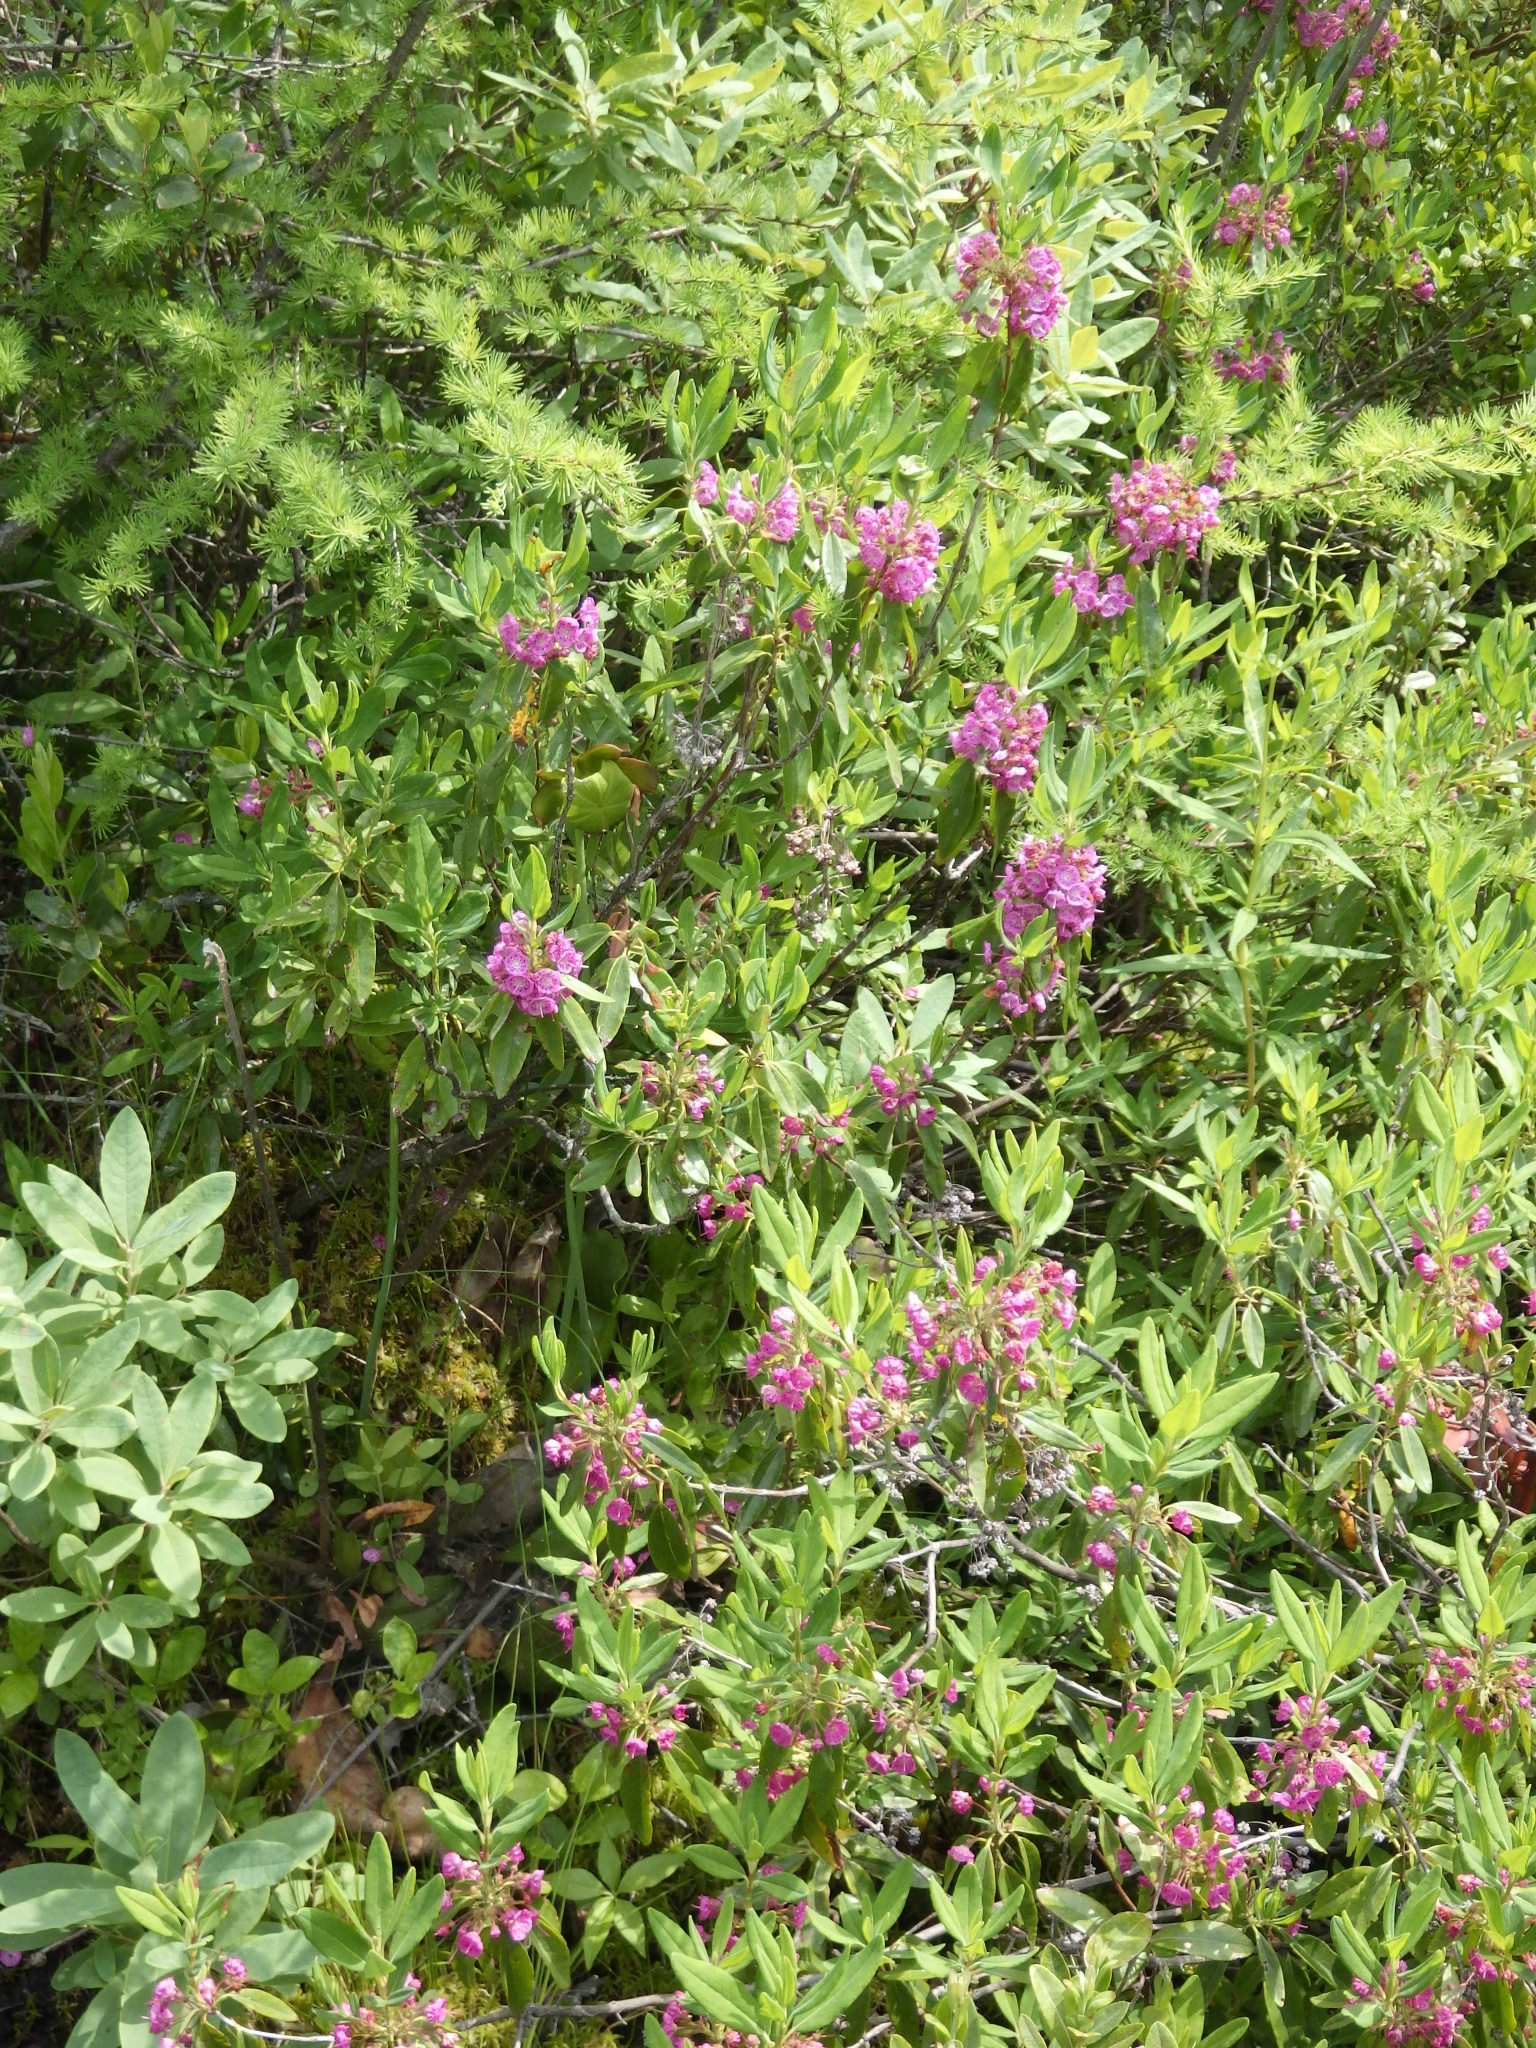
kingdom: Plantae
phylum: Tracheophyta
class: Magnoliopsida
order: Ericales
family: Ericaceae
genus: Kalmia
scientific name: Kalmia angustifolia
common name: Sheep-laurel
